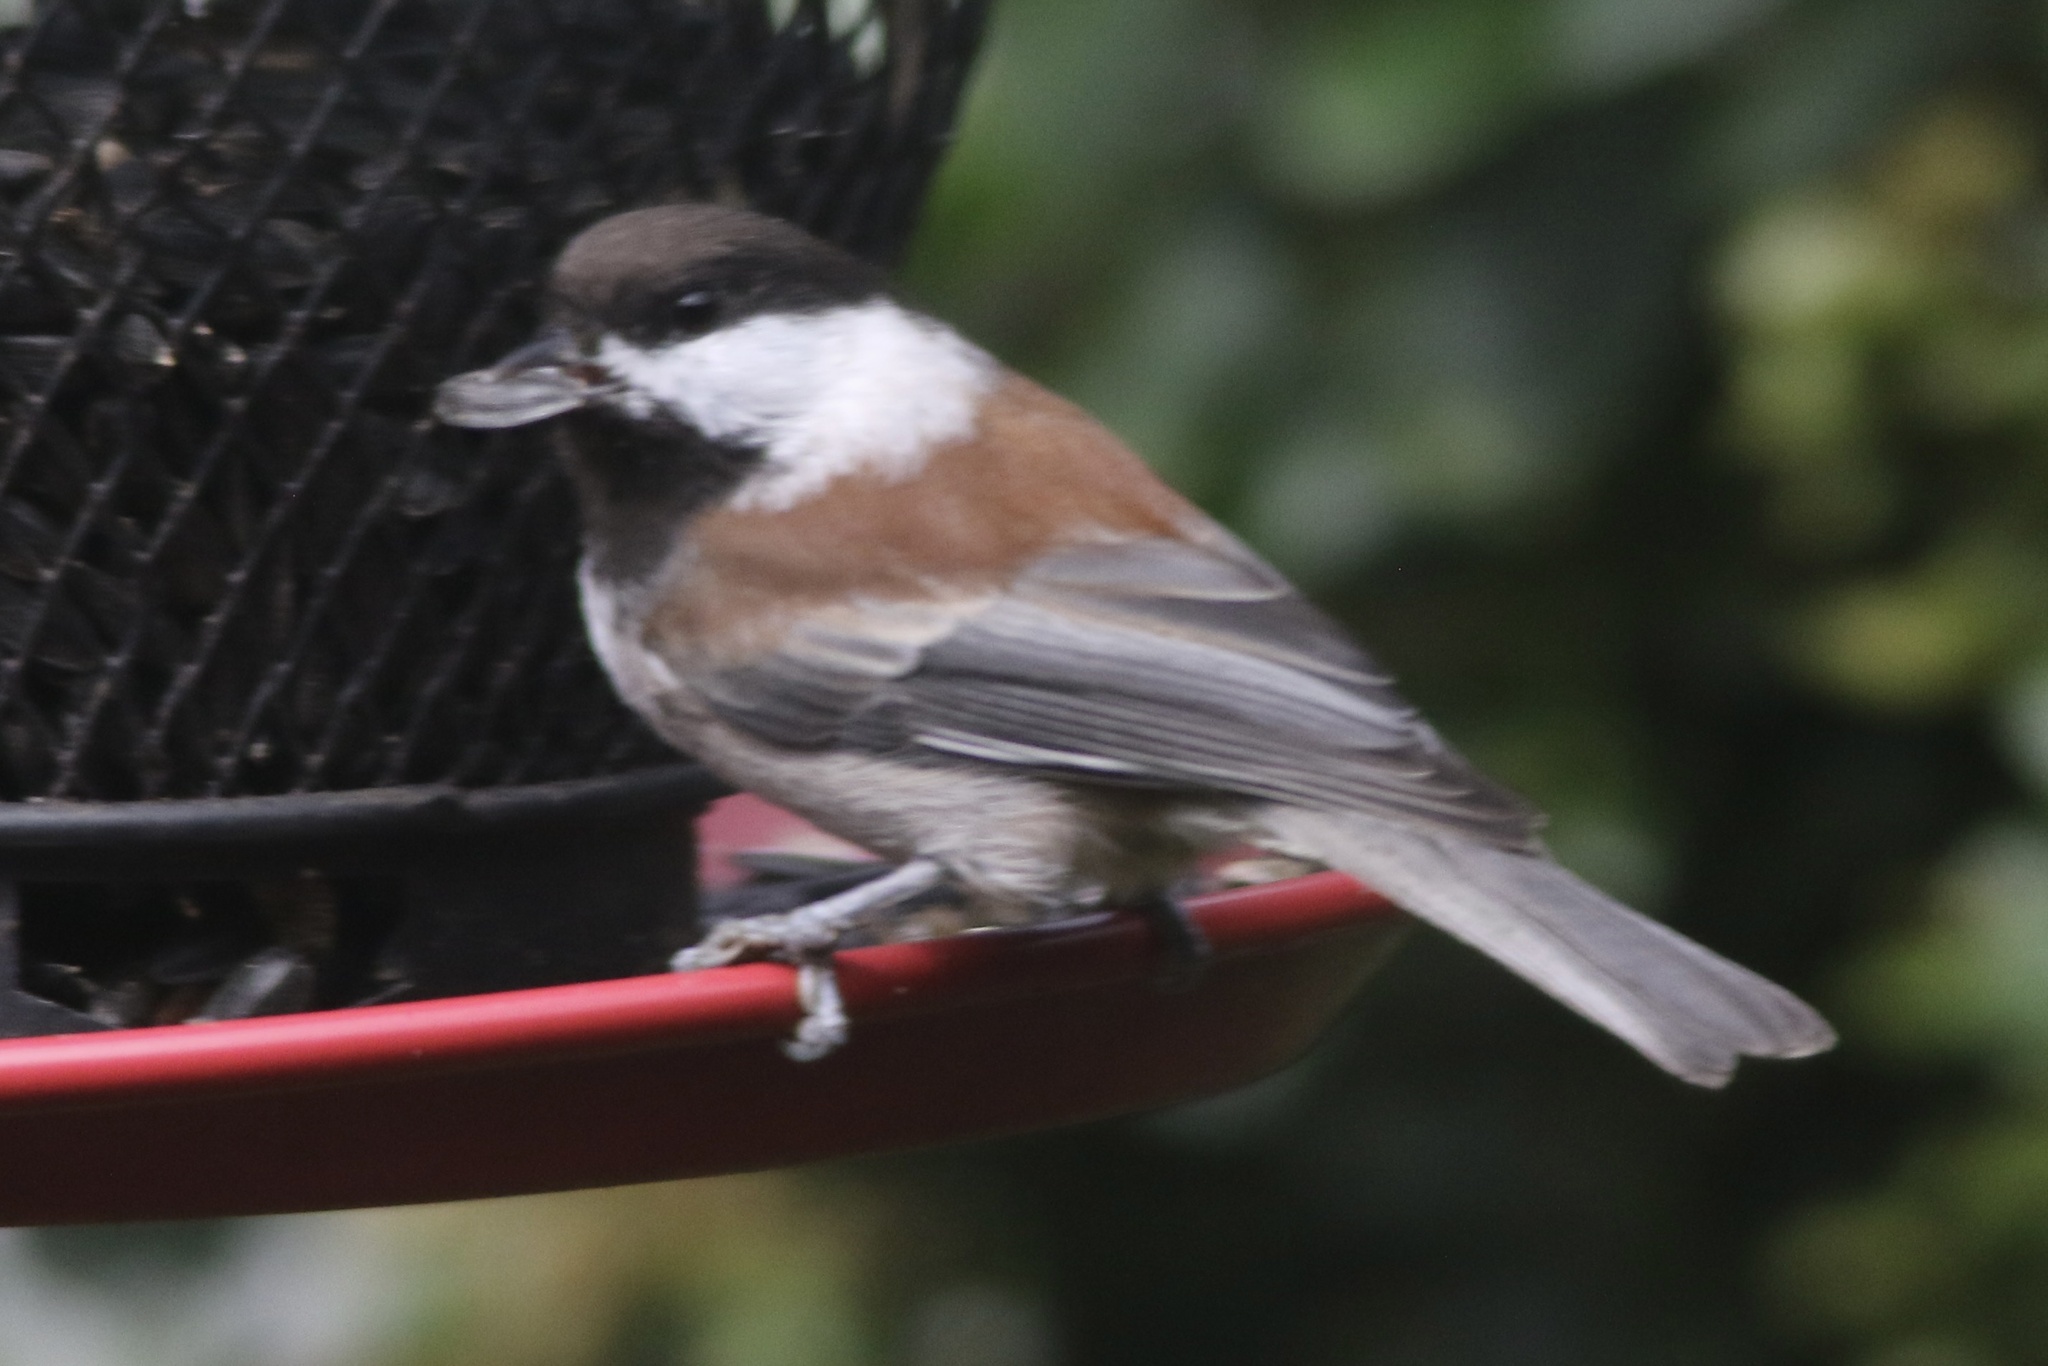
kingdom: Animalia
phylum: Chordata
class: Aves
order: Passeriformes
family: Paridae
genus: Poecile
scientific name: Poecile rufescens
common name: Chestnut-backed chickadee
